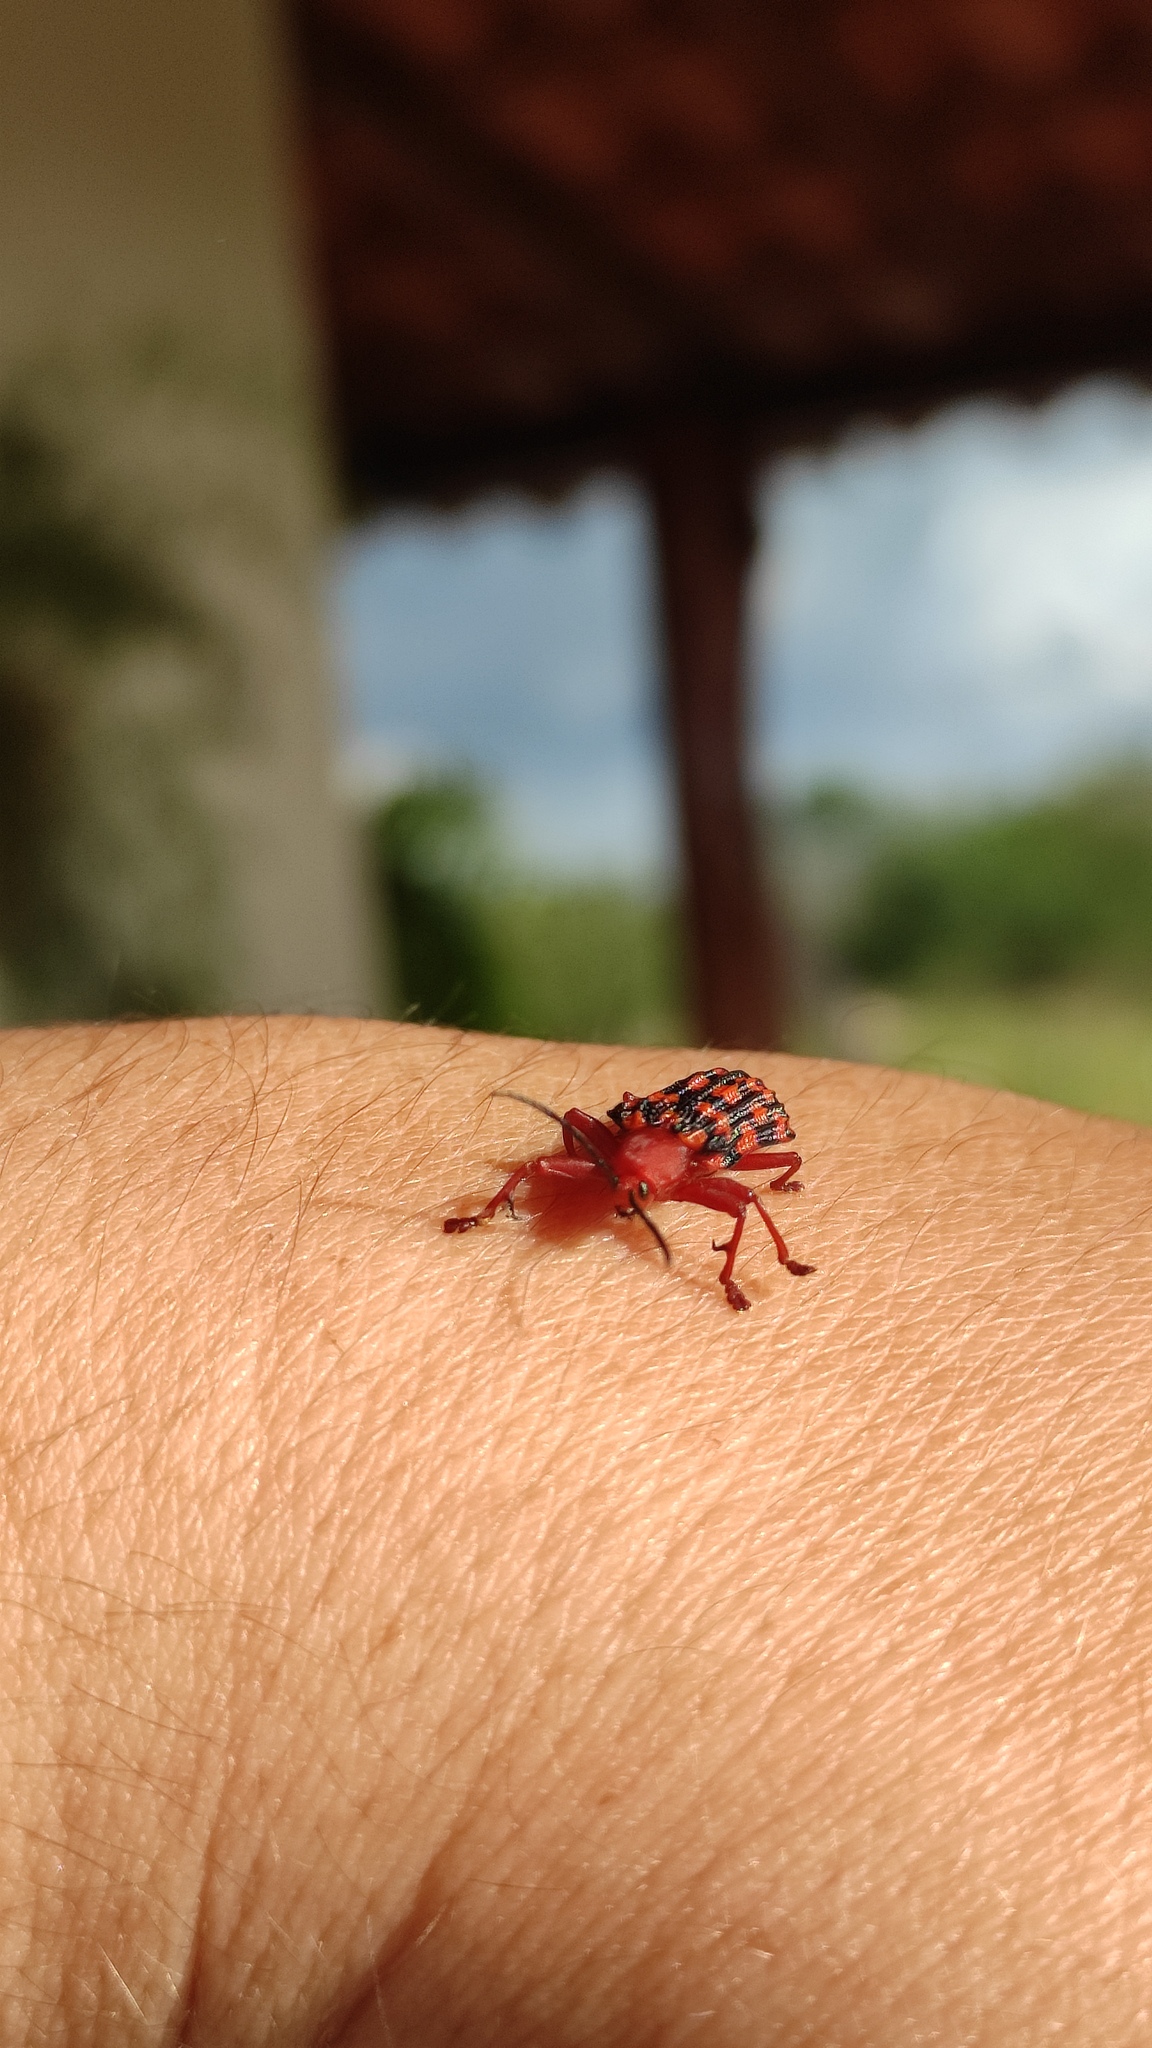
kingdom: Animalia
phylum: Arthropoda
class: Insecta
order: Coleoptera
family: Chrysomelidae
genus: Sceloenopla
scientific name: Sceloenopla maculata
